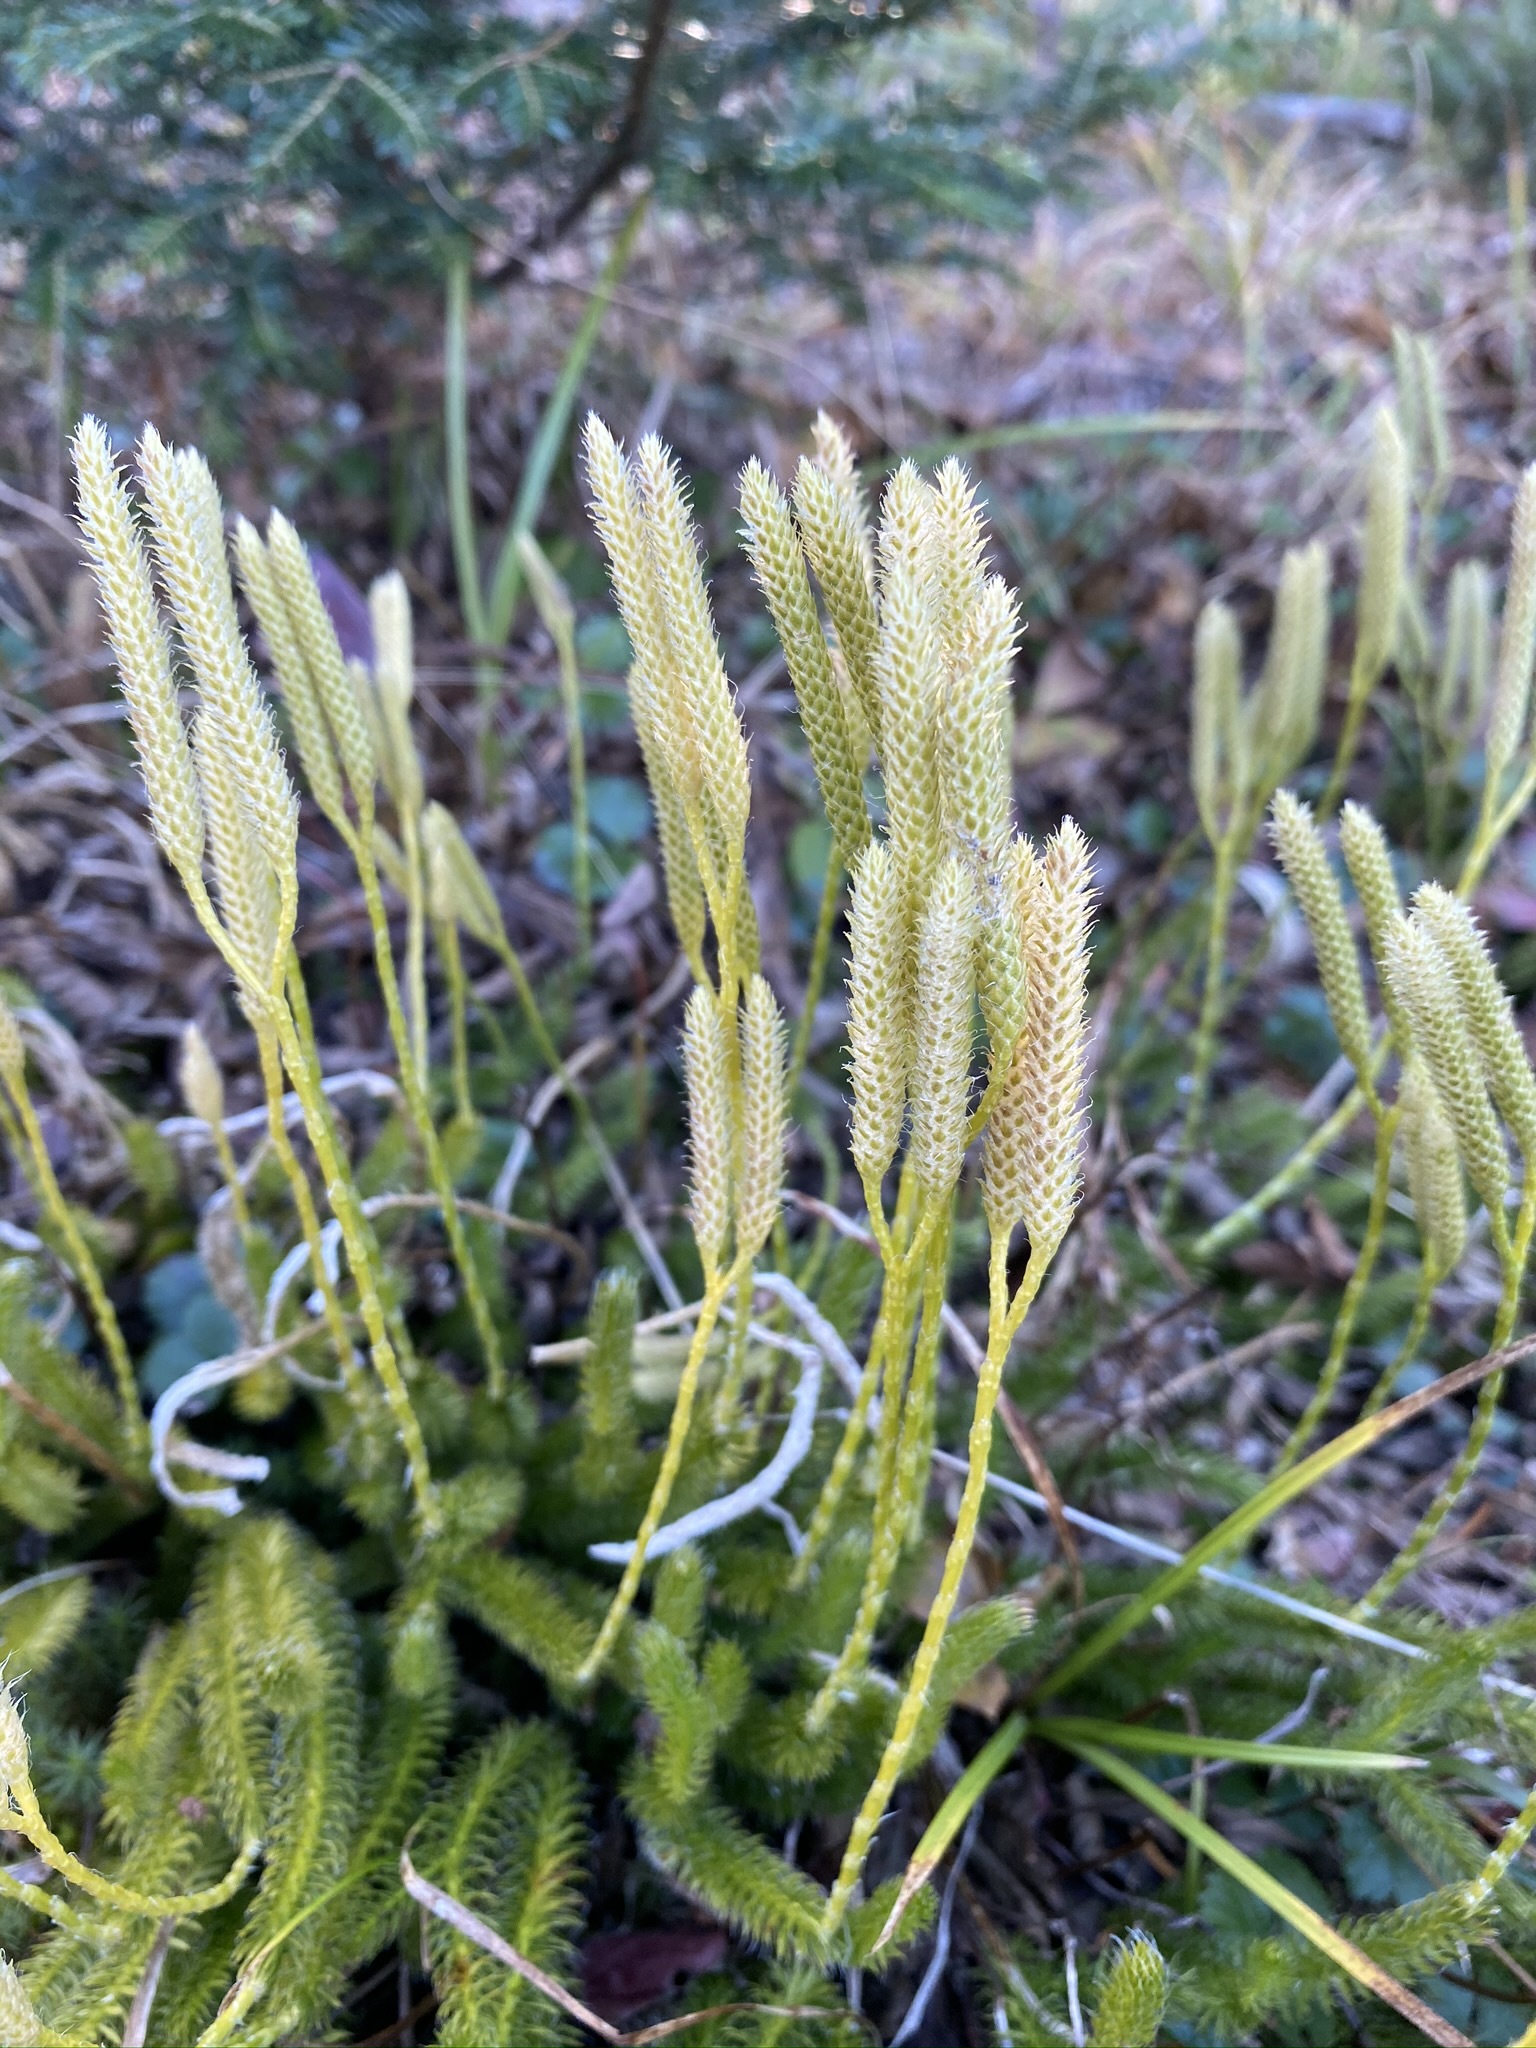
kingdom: Plantae
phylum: Tracheophyta
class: Lycopodiopsida
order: Lycopodiales
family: Lycopodiaceae
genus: Lycopodium
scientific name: Lycopodium clavatum
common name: Stag's-horn clubmoss
